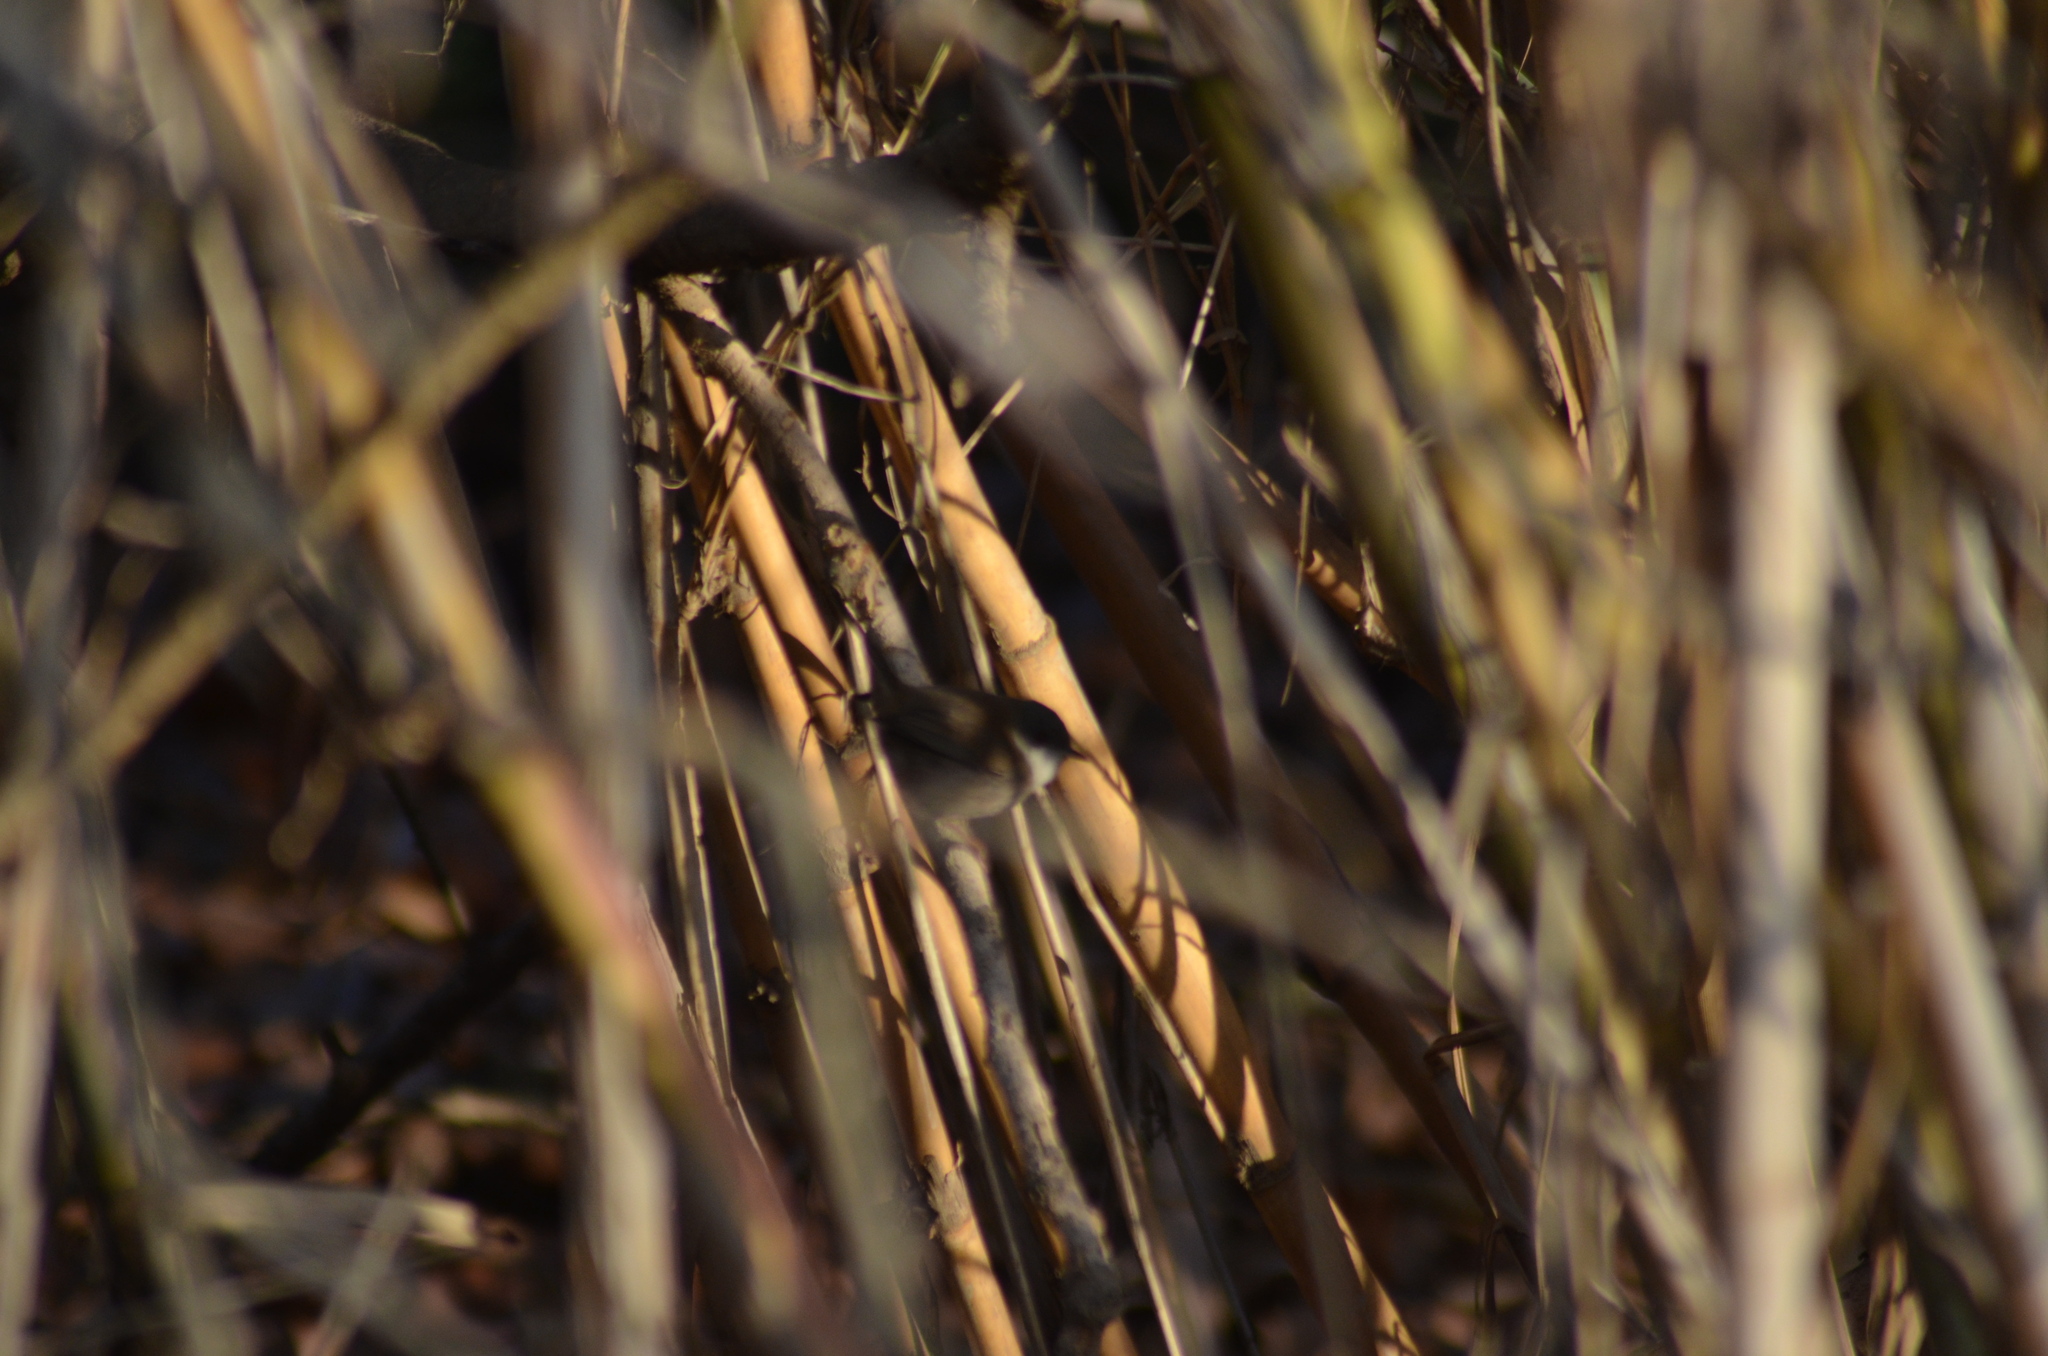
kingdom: Animalia
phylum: Chordata
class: Aves
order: Passeriformes
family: Sylviidae
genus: Curruca
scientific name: Curruca melanocephala
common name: Sardinian warbler
